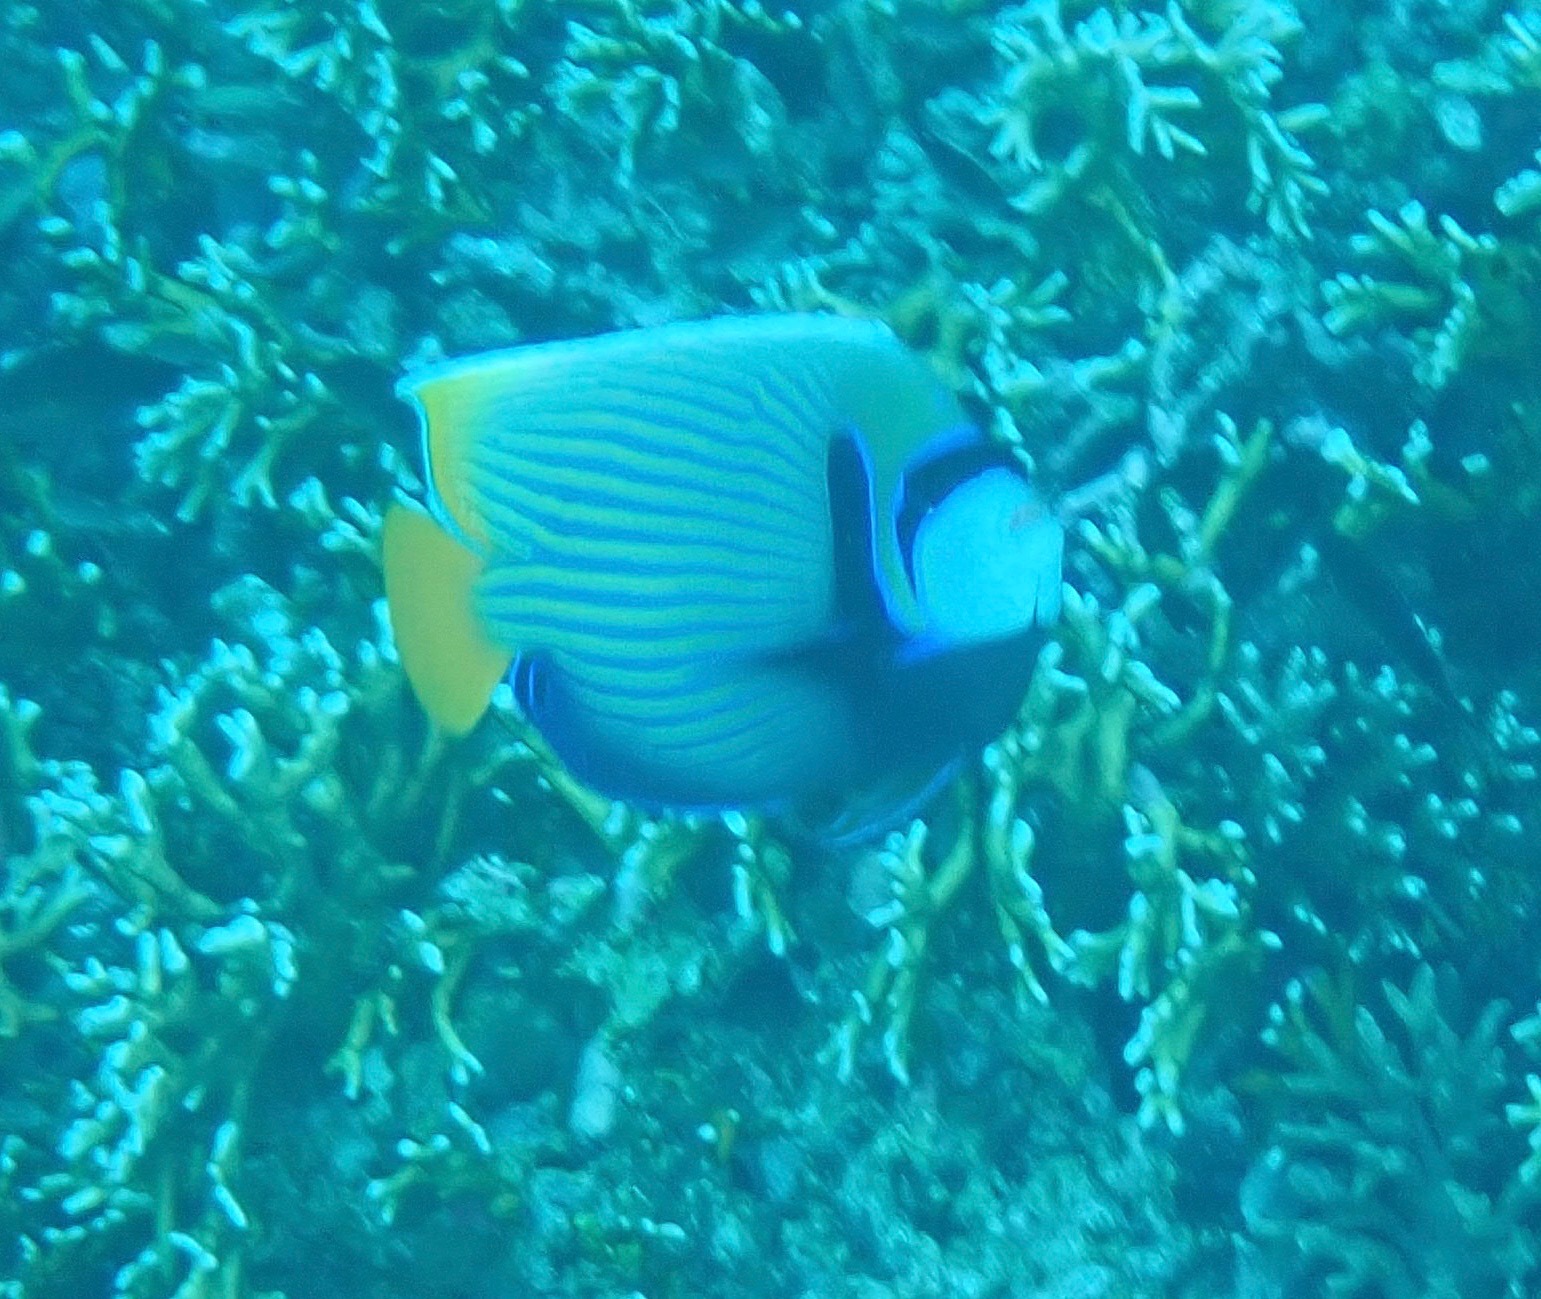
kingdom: Animalia
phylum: Chordata
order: Perciformes
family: Pomacanthidae
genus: Pomacanthus
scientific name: Pomacanthus imperator
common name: Emperor angelfish
